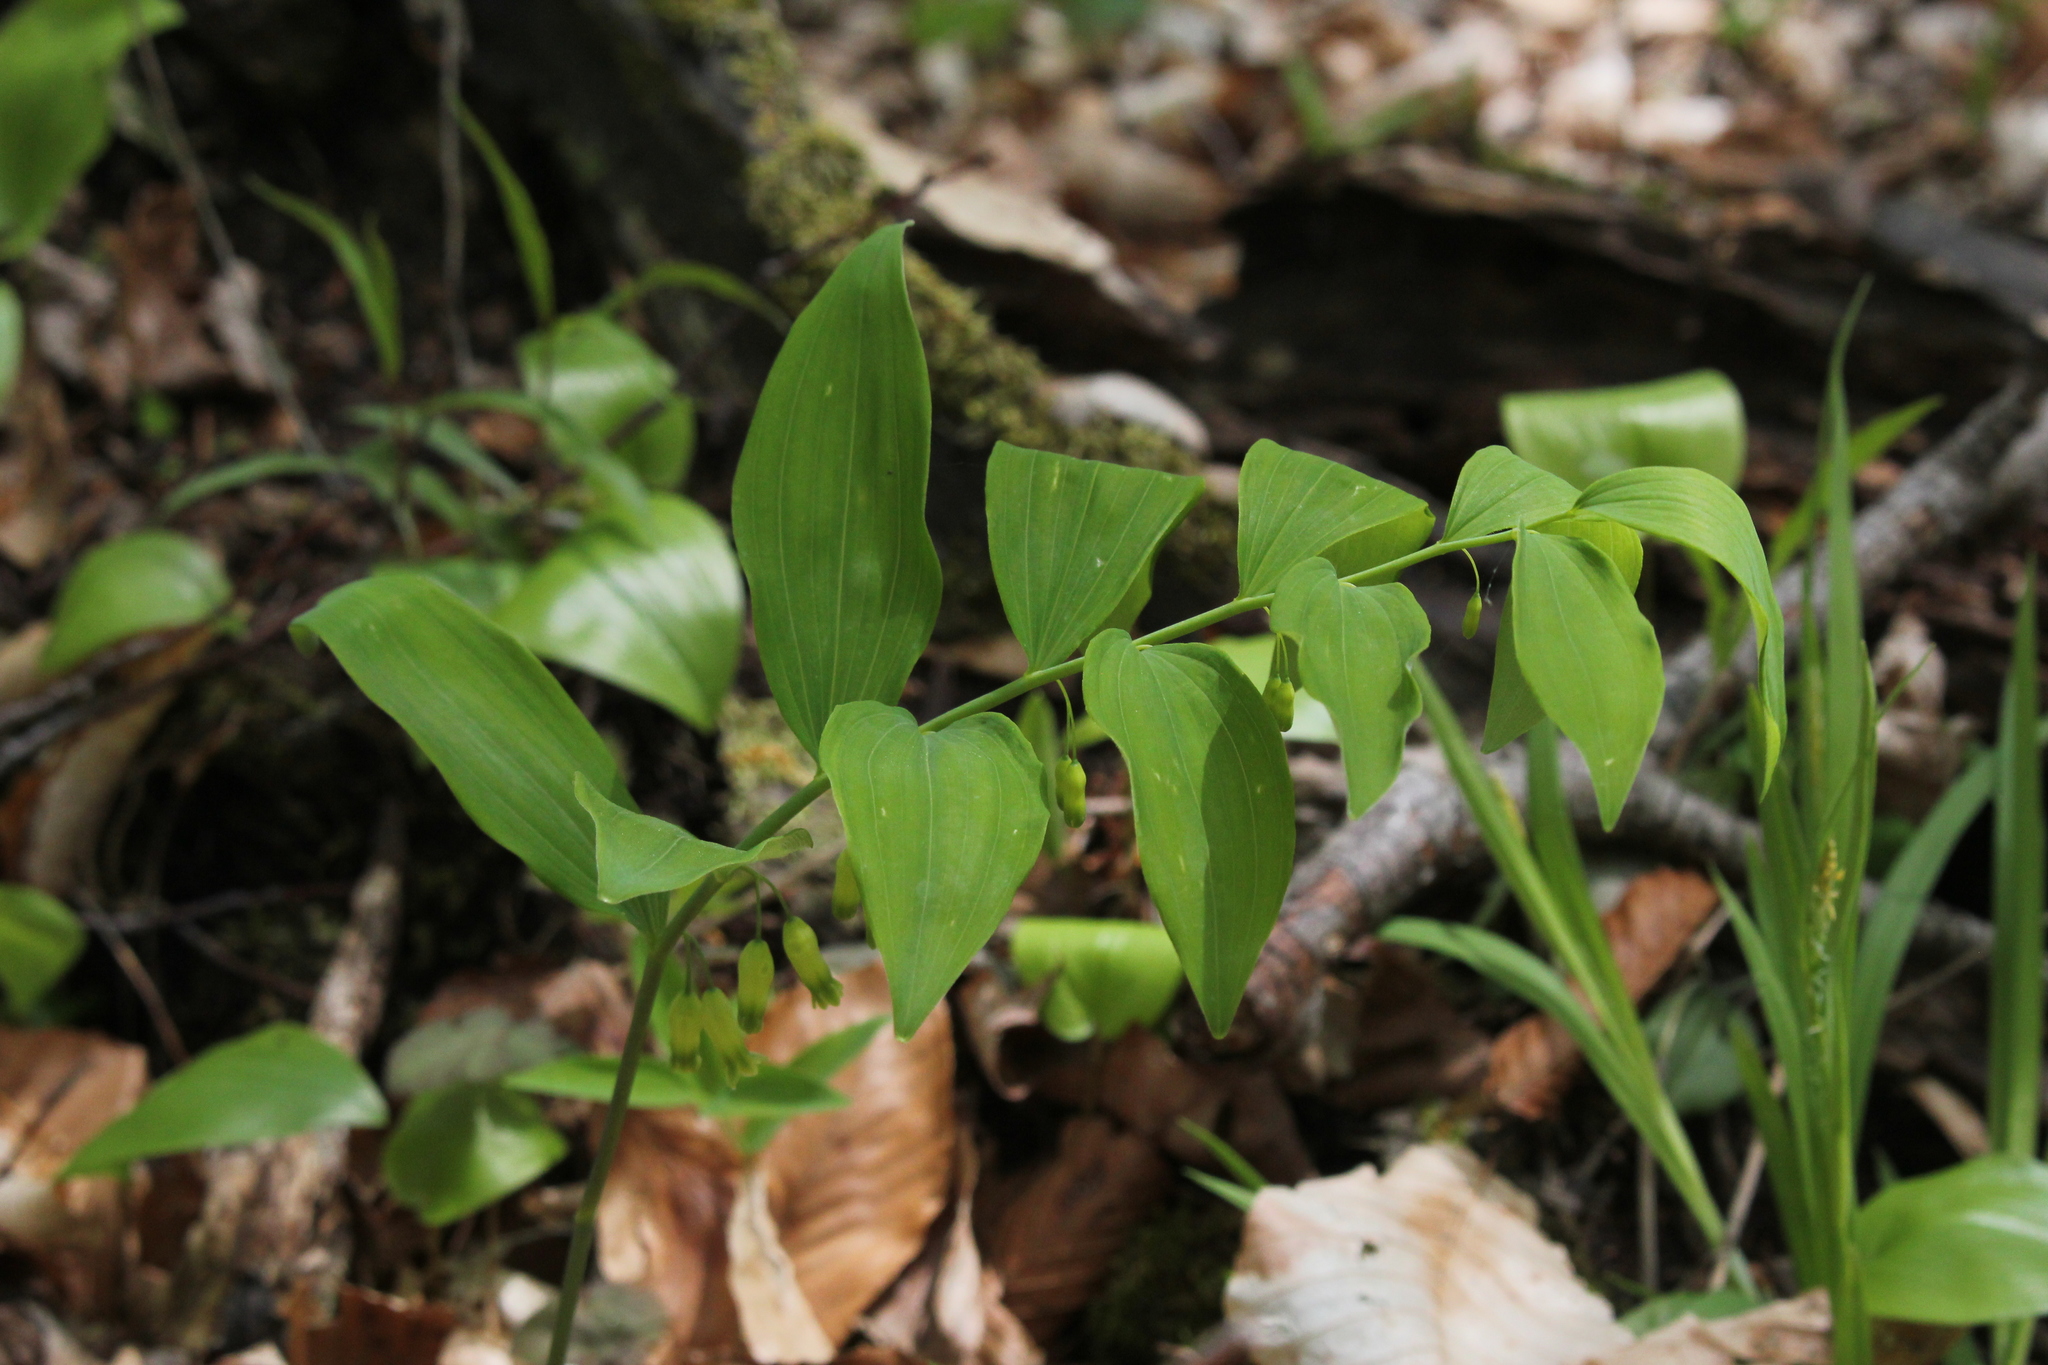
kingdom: Plantae
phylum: Tracheophyta
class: Liliopsida
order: Asparagales
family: Asparagaceae
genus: Polygonatum
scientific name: Polygonatum pubescens
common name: Downy solomon's seal
